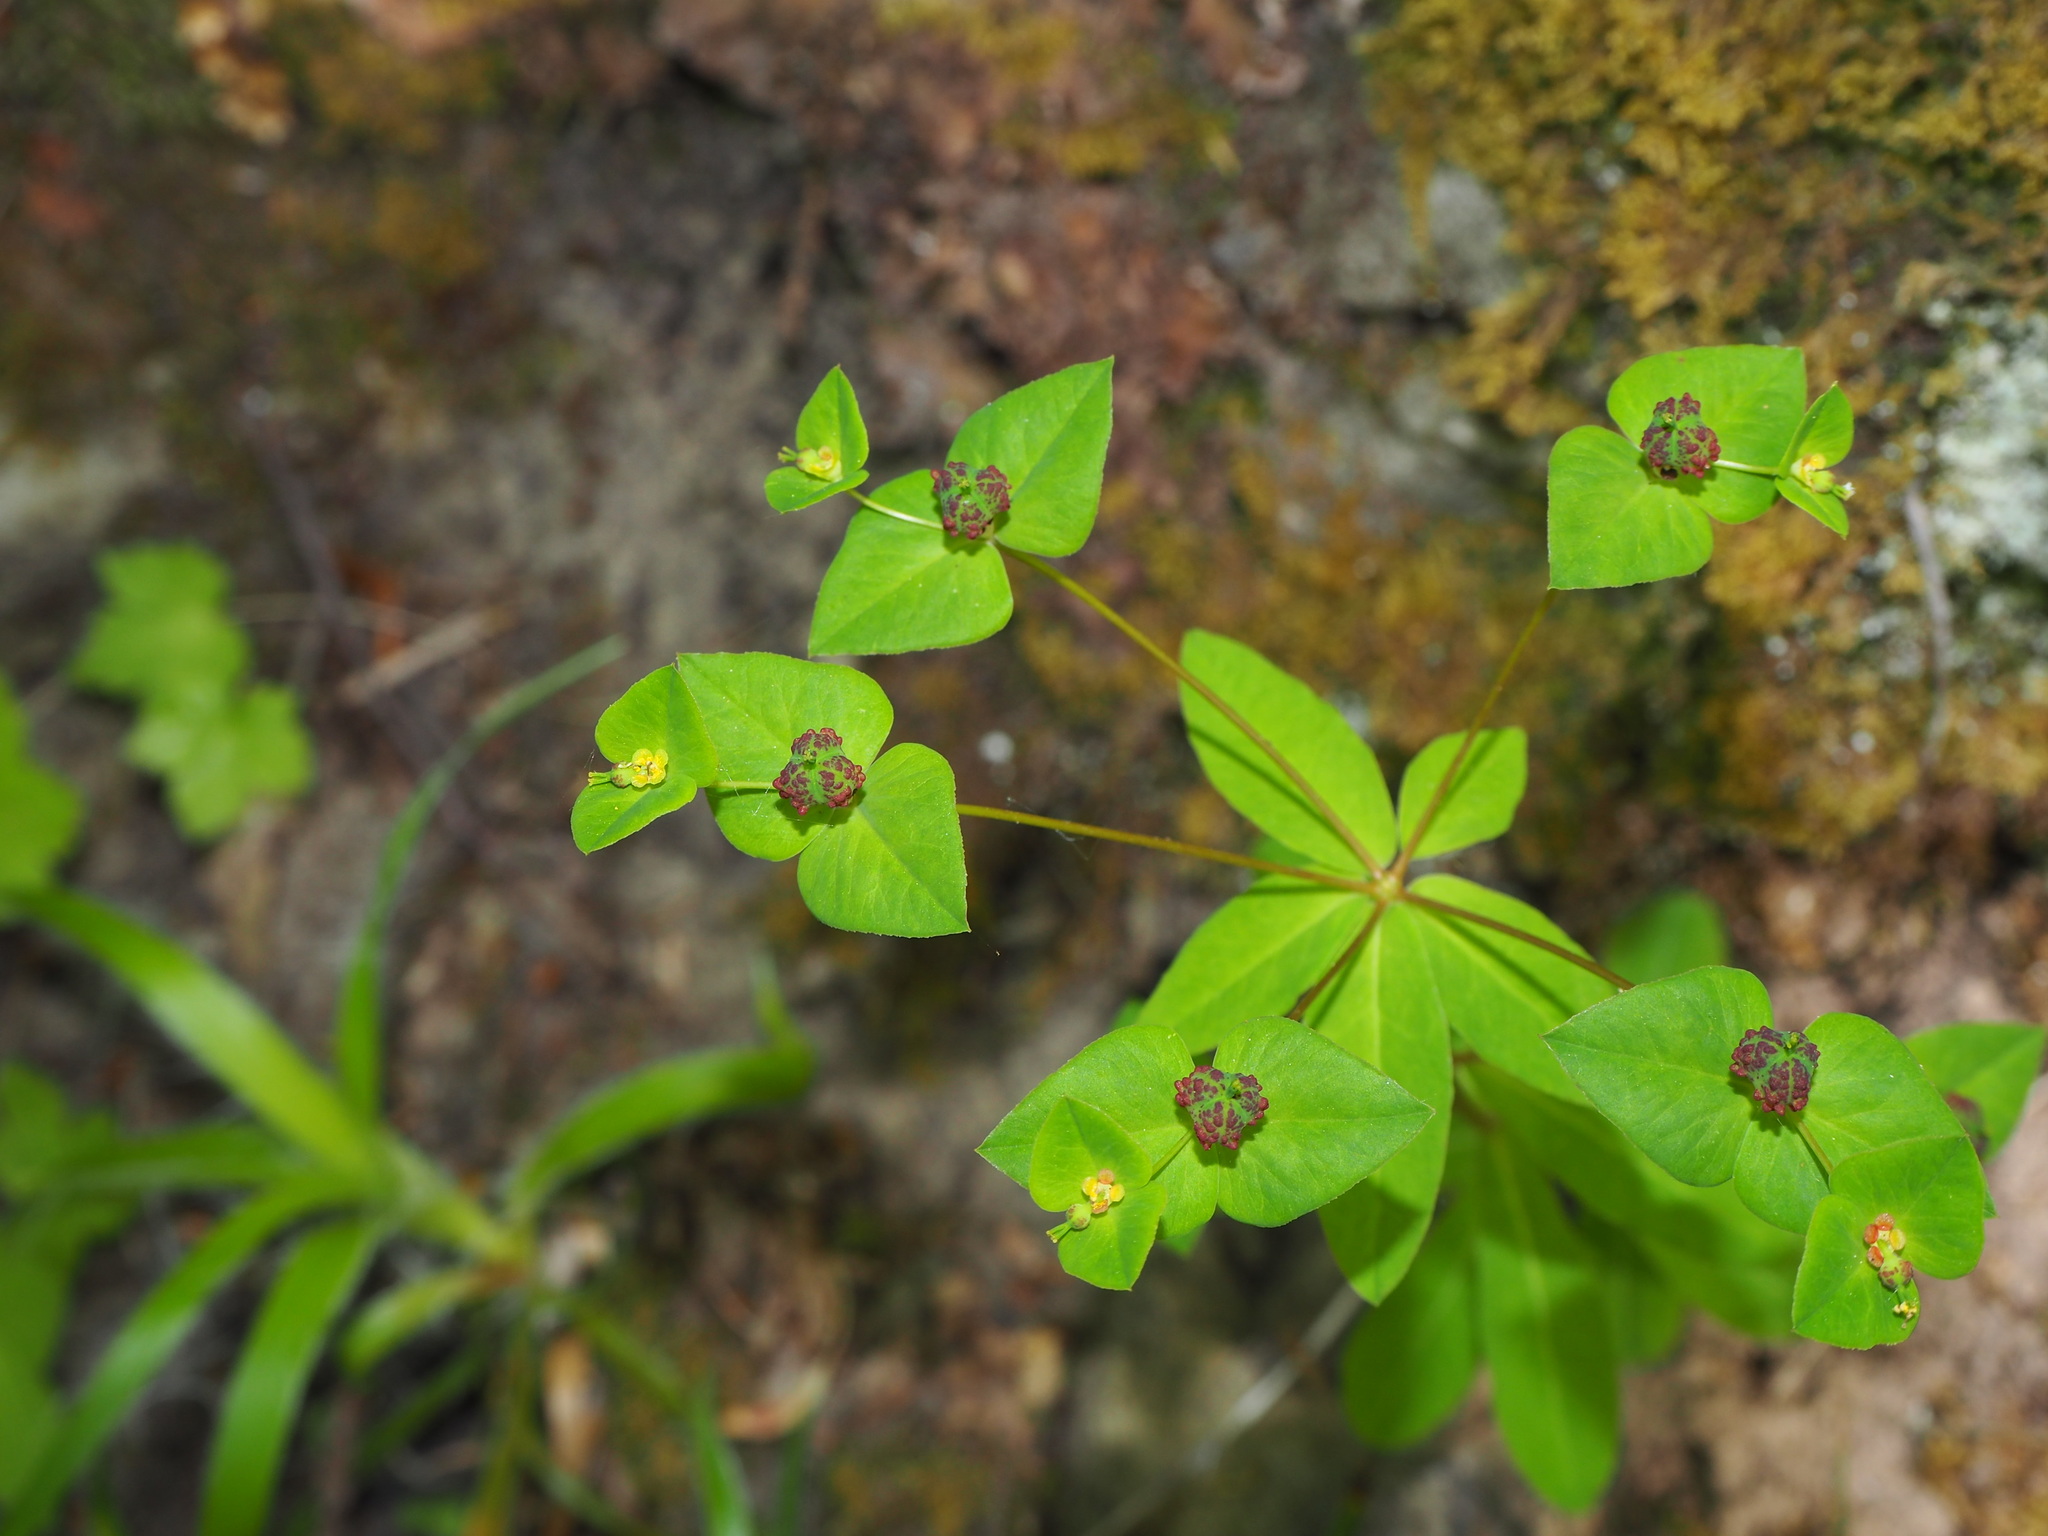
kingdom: Plantae
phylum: Tracheophyta
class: Magnoliopsida
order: Malpighiales
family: Euphorbiaceae
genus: Euphorbia
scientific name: Euphorbia dulcis
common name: Sweet spurge
